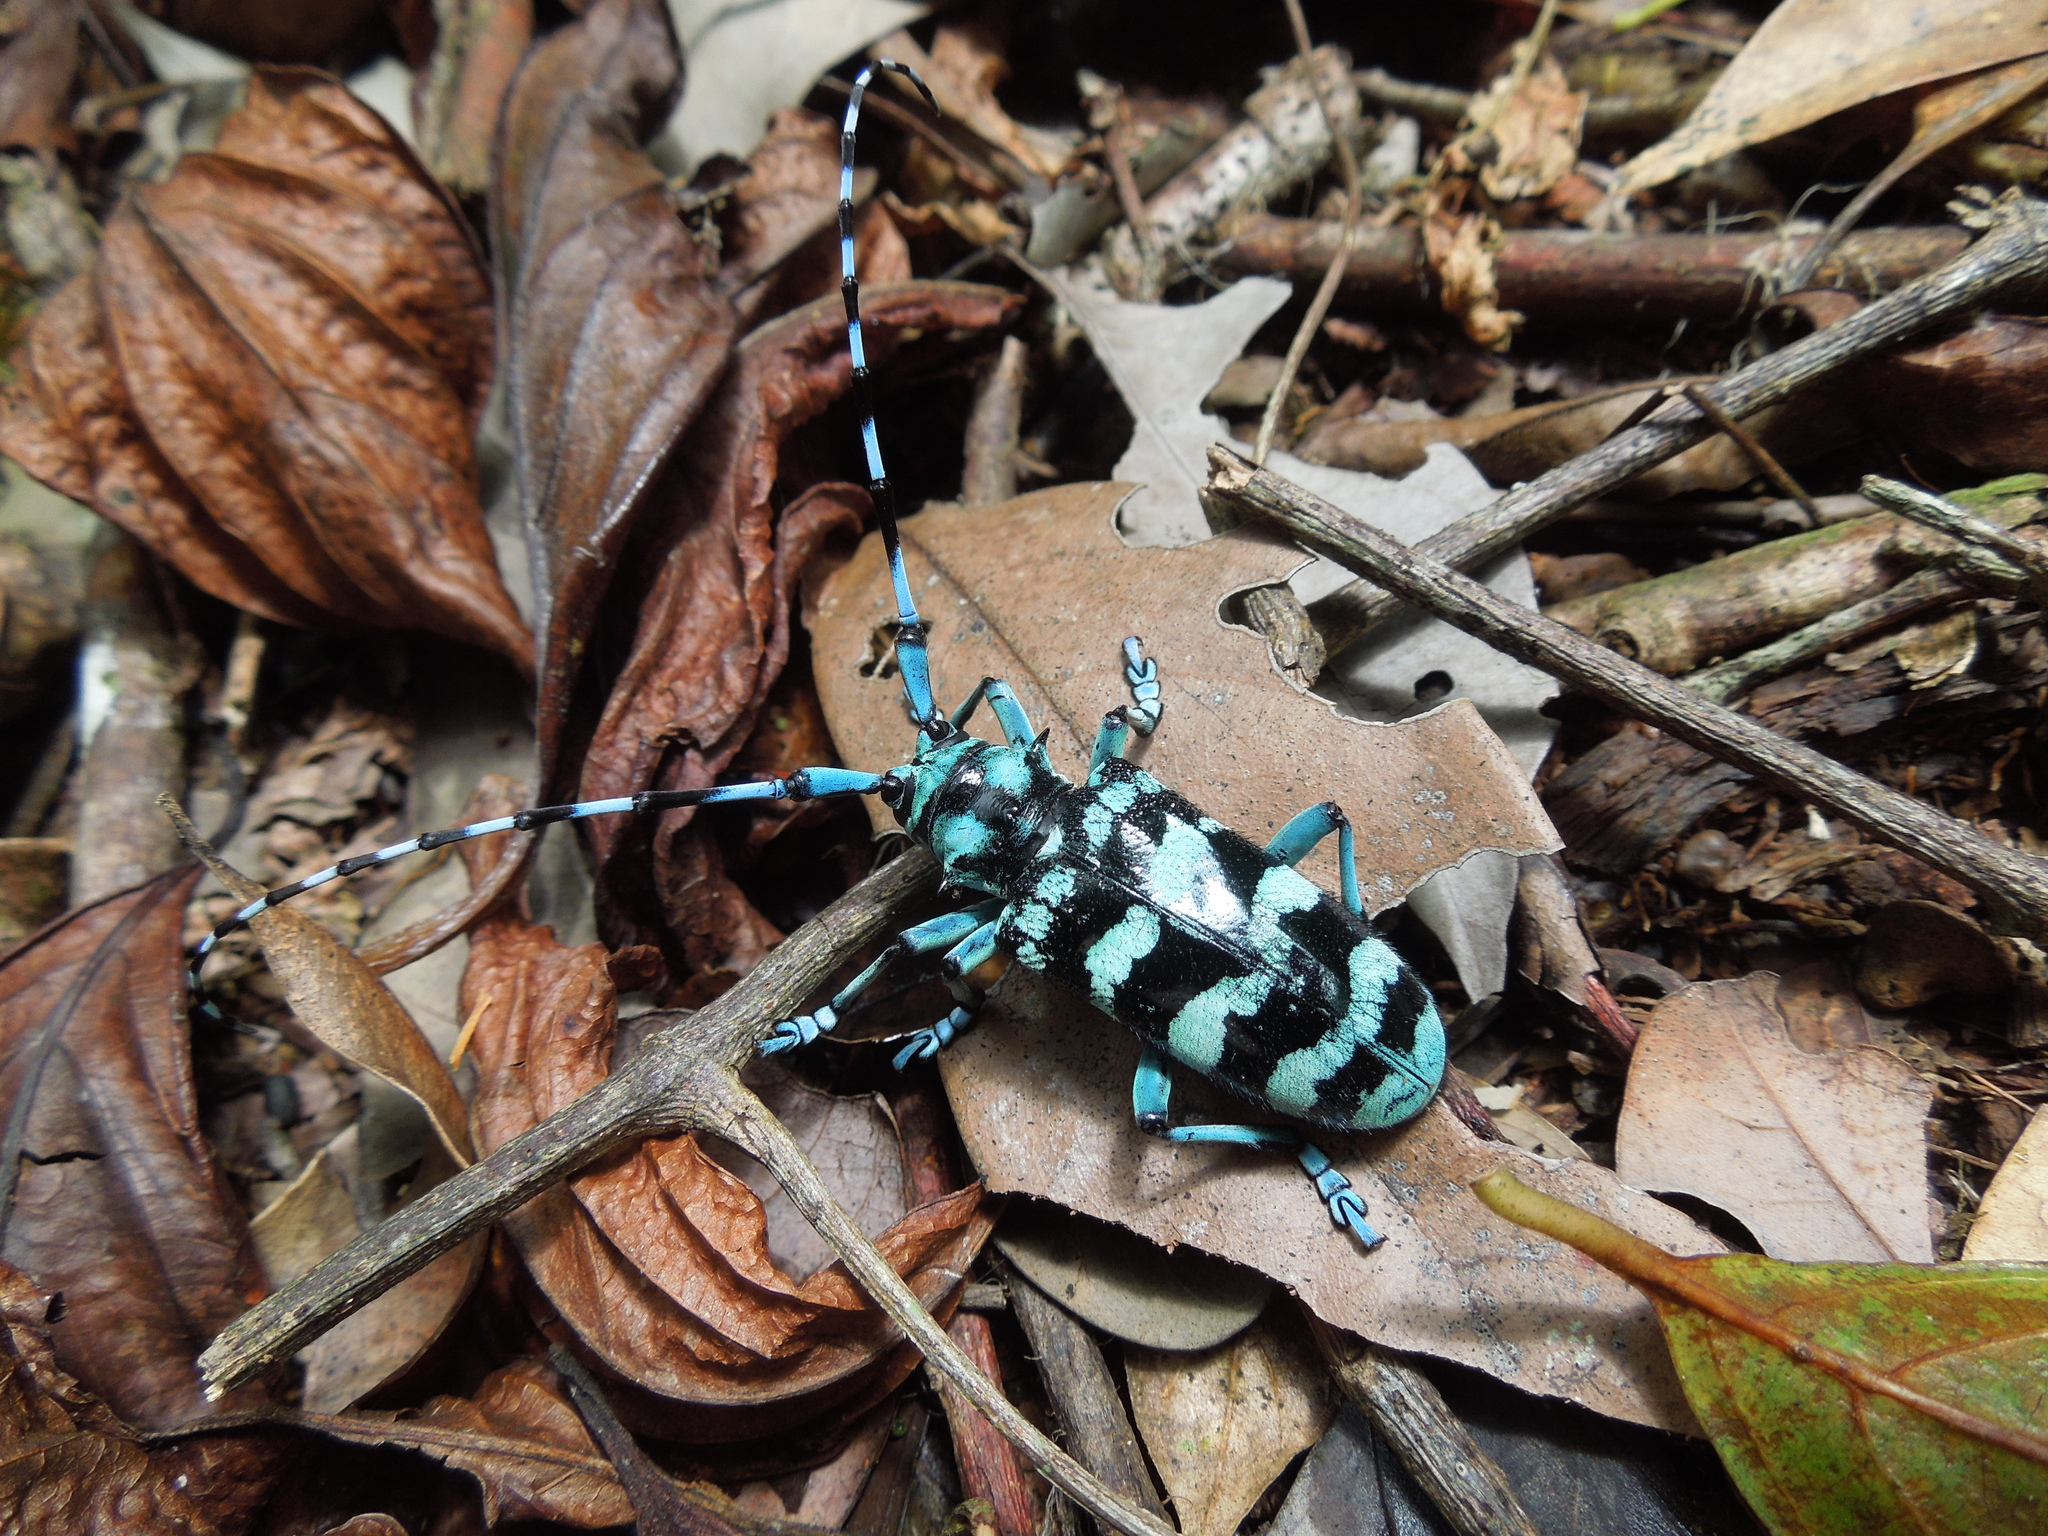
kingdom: Animalia
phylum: Arthropoda
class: Insecta
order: Coleoptera
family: Cerambycidae
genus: Anoplophora
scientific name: Anoplophora zonator
